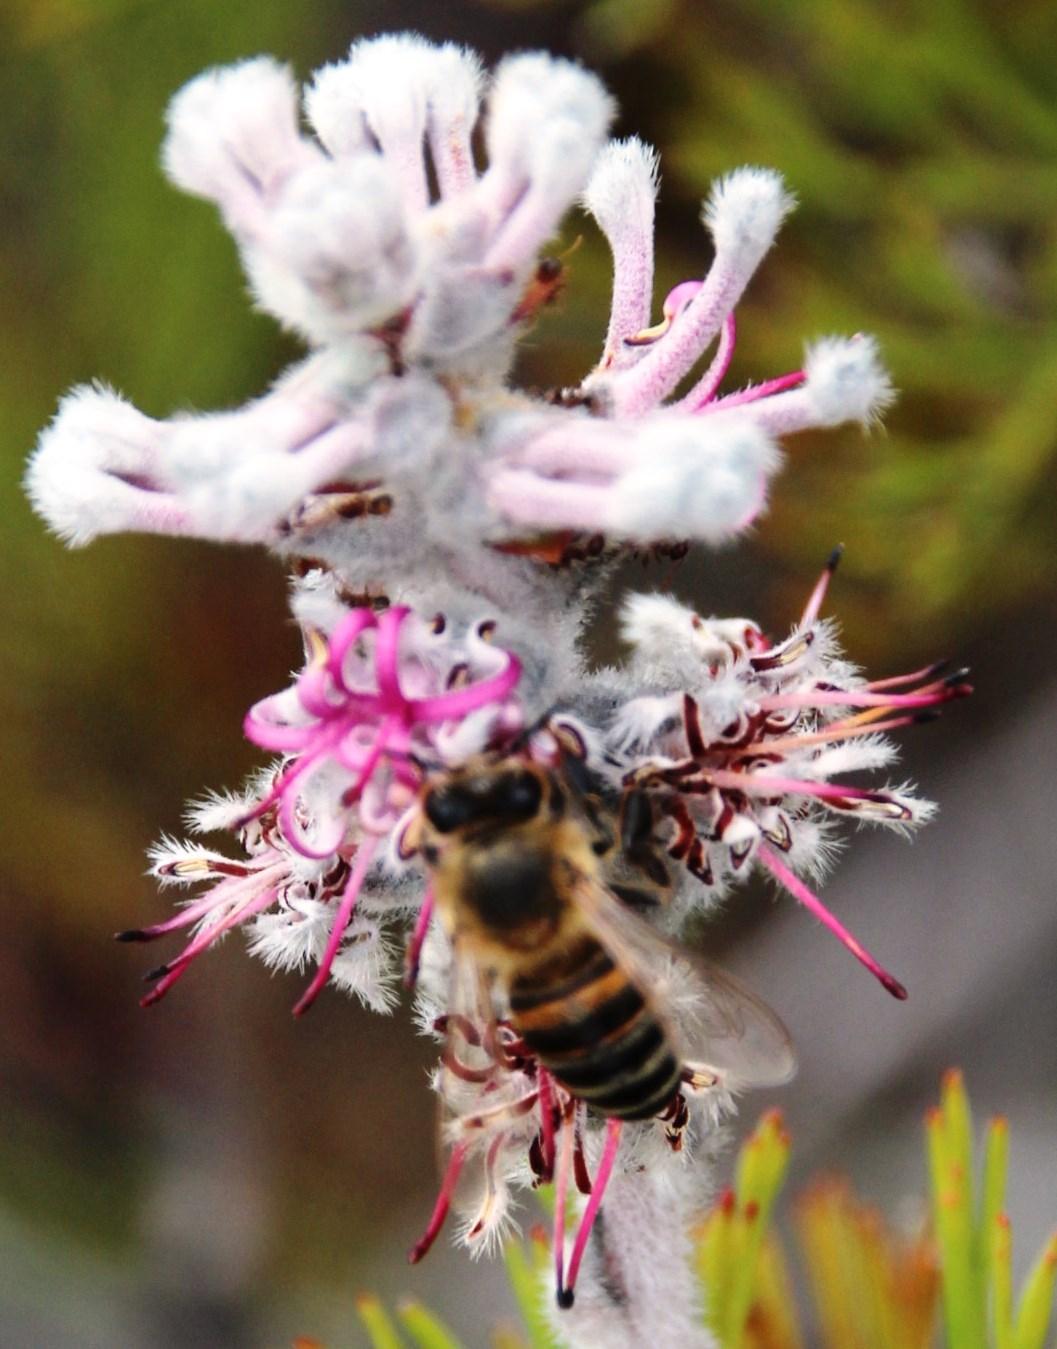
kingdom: Animalia
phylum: Arthropoda
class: Insecta
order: Hymenoptera
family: Apidae
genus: Apis
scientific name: Apis mellifera
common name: Honey bee
